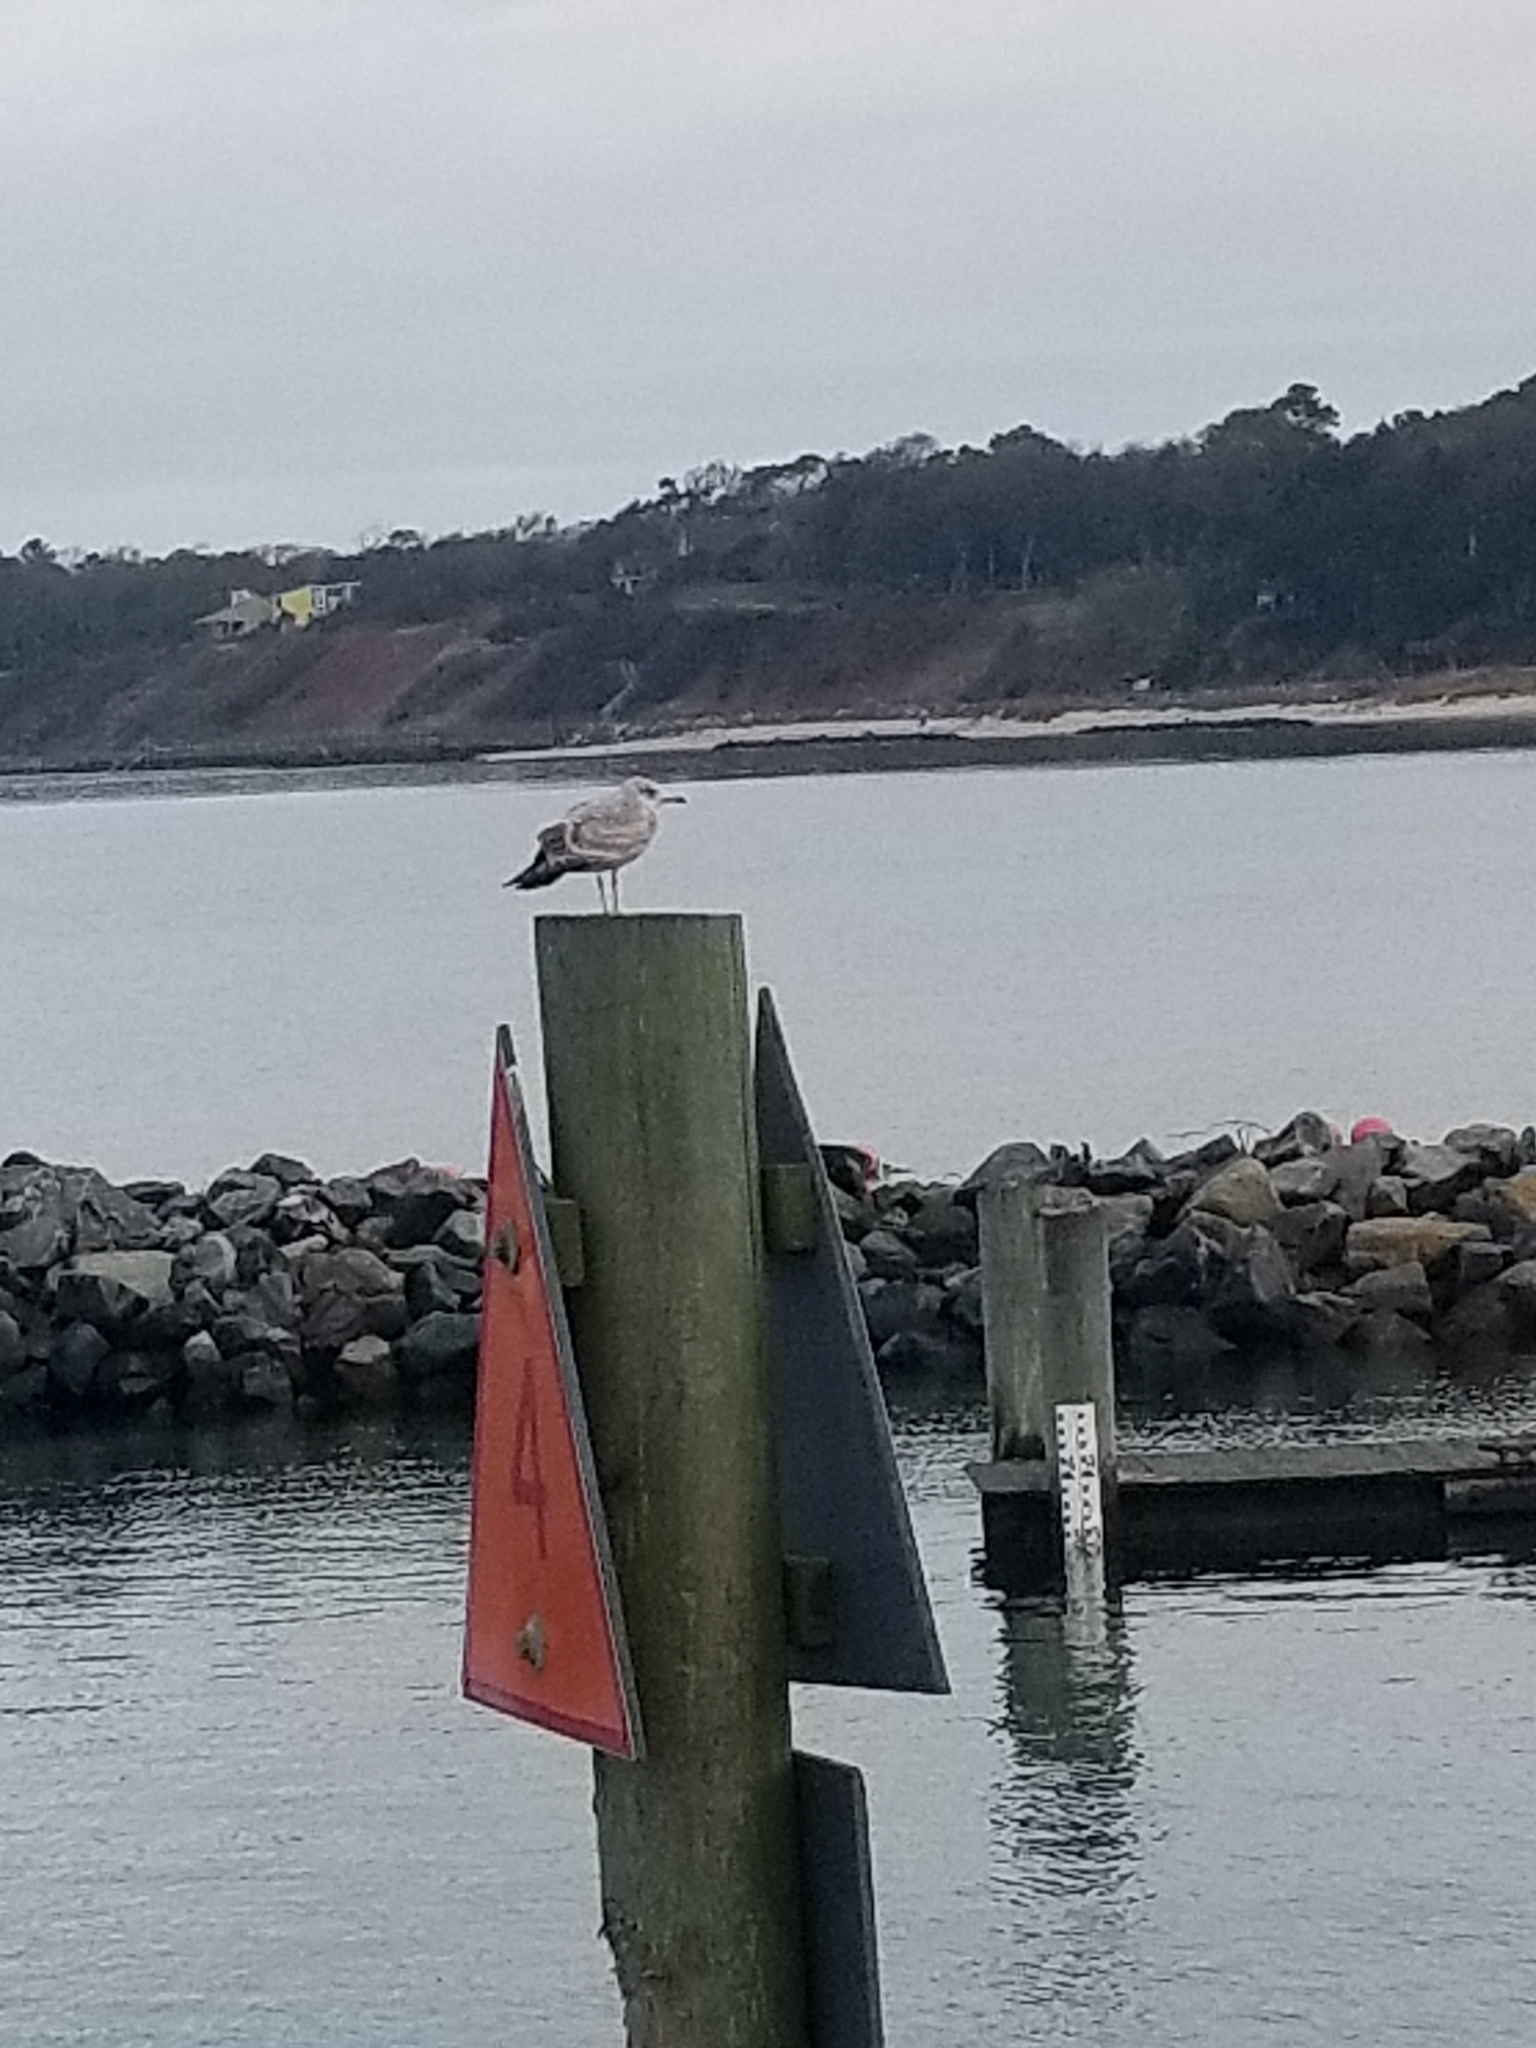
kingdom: Animalia
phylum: Chordata
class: Aves
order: Charadriiformes
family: Laridae
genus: Larus
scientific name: Larus argentatus
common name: Herring gull
